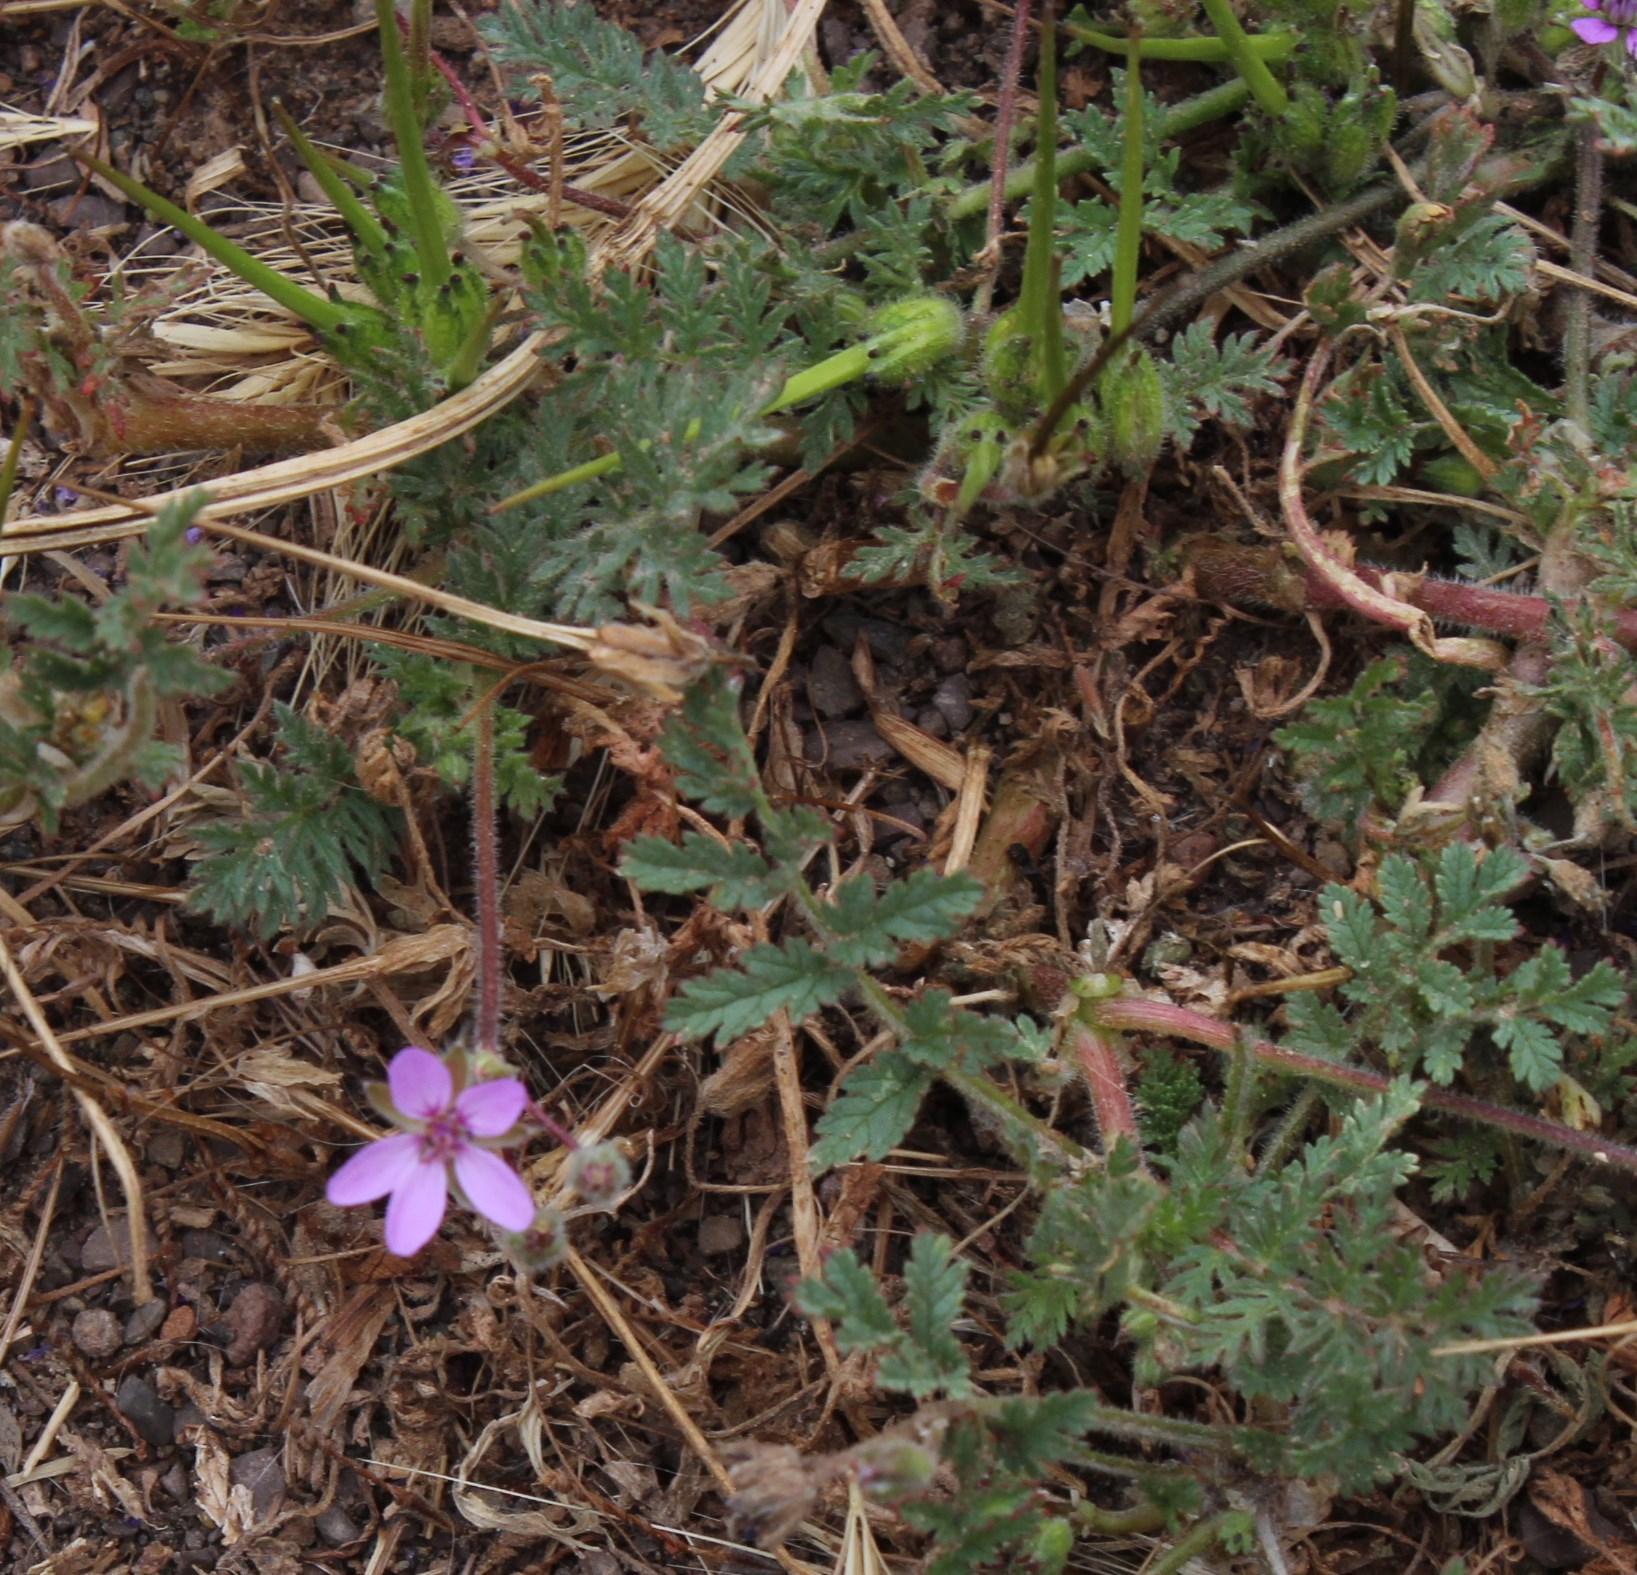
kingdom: Plantae
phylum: Tracheophyta
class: Magnoliopsida
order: Geraniales
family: Geraniaceae
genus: Erodium
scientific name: Erodium cicutarium
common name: Common stork's-bill
